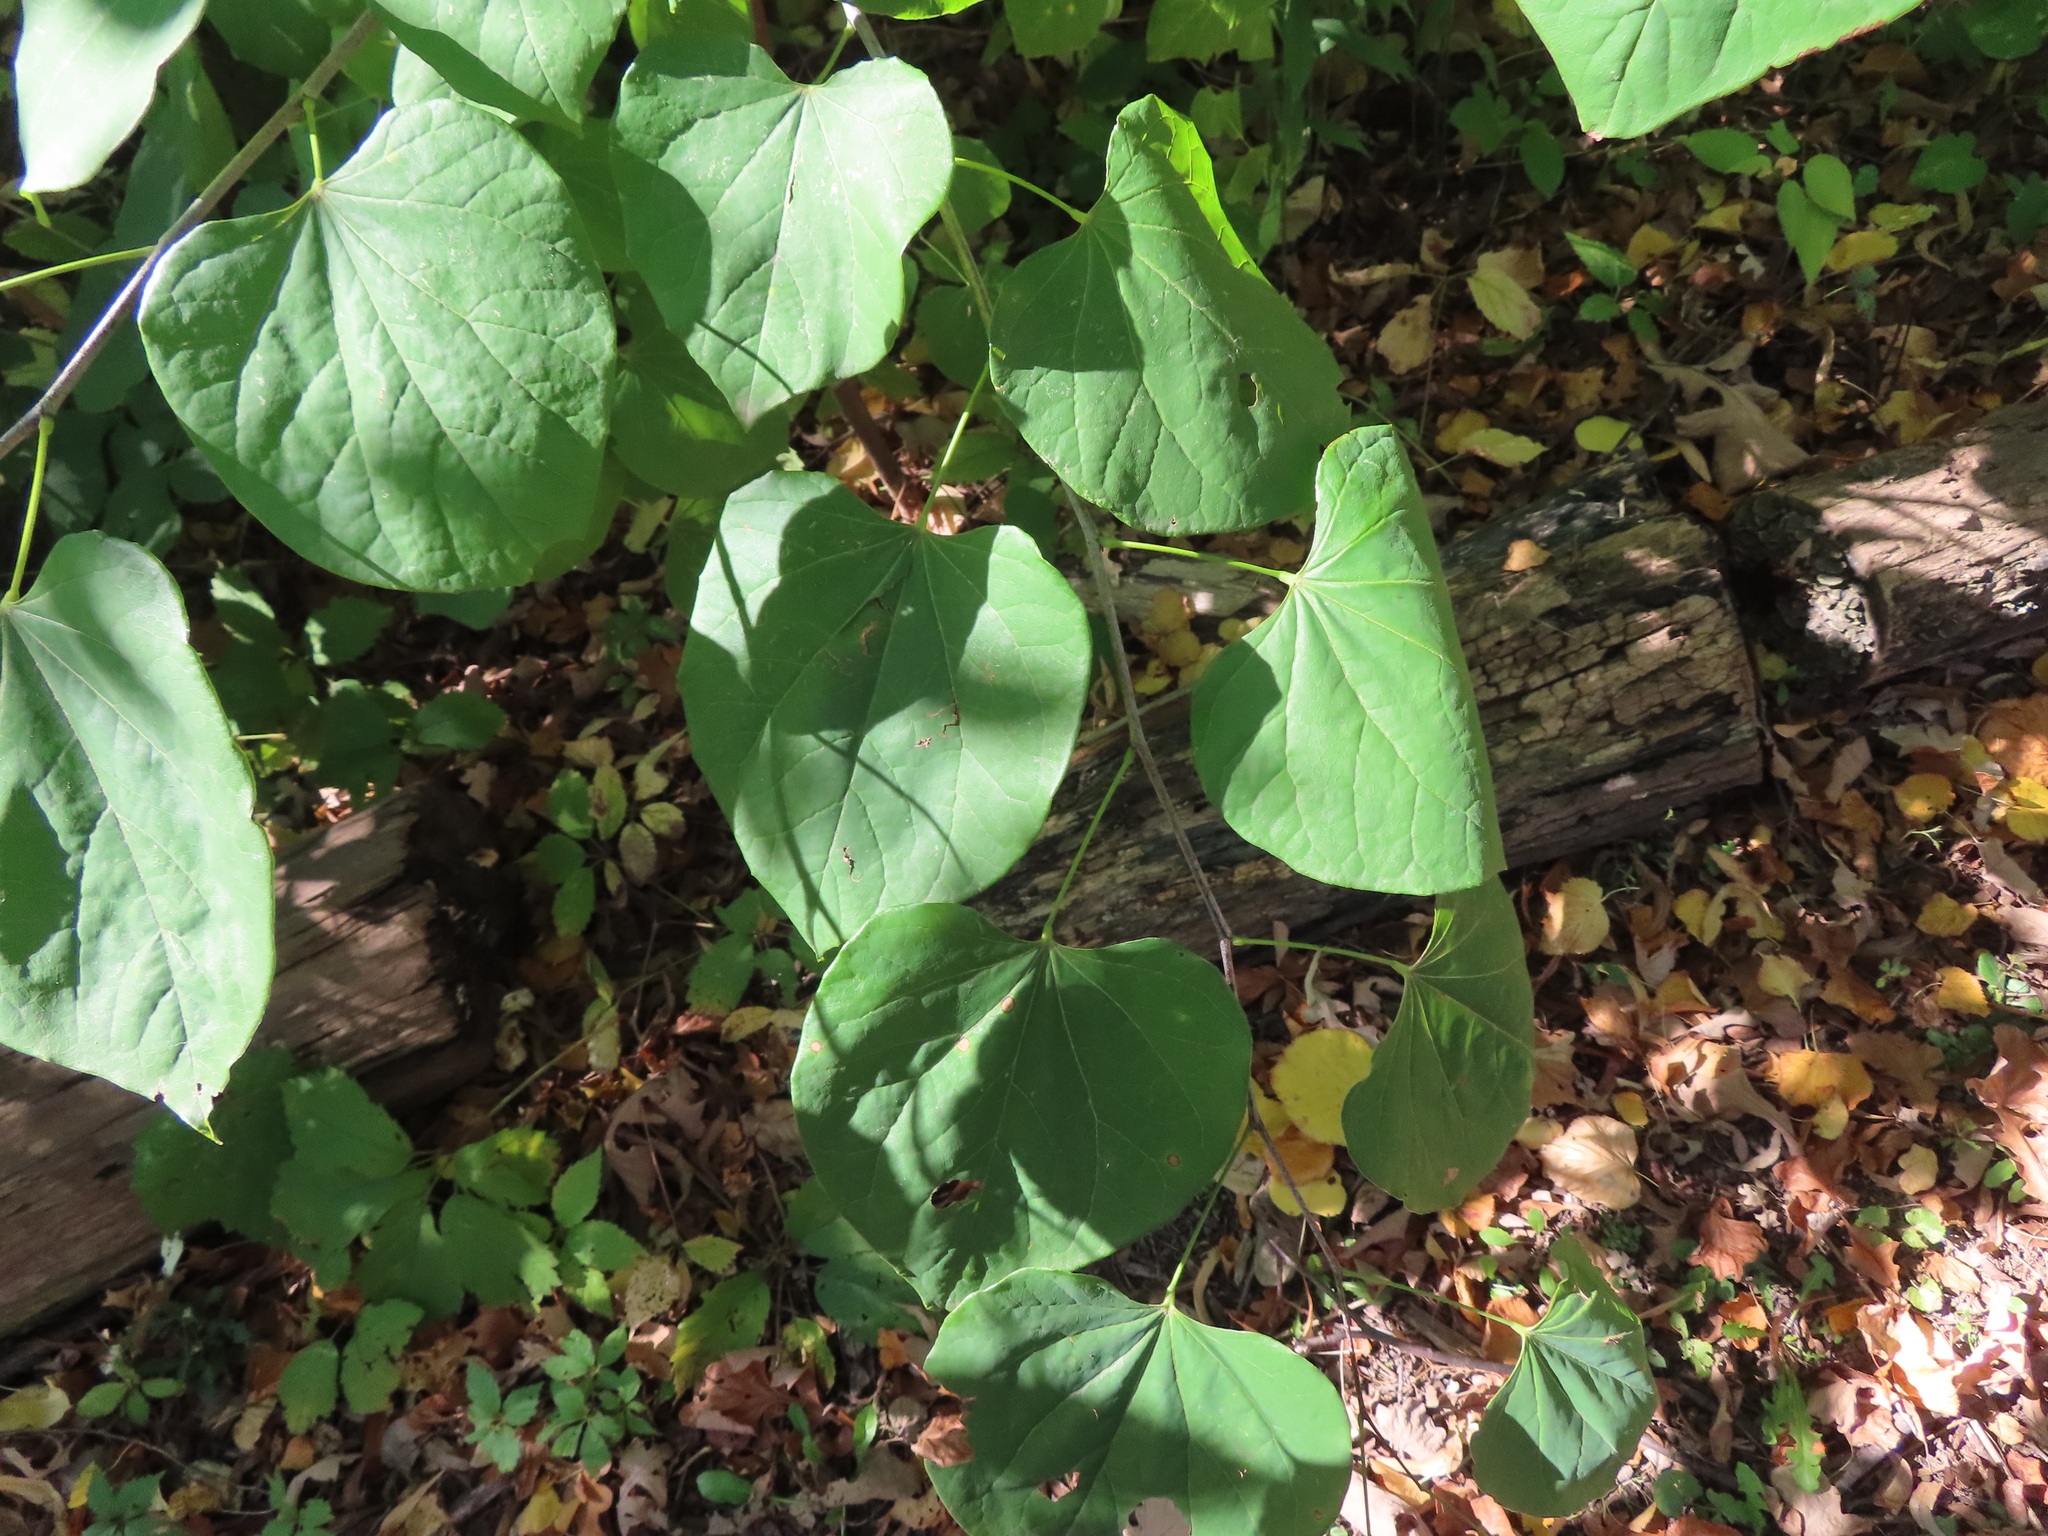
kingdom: Plantae
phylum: Tracheophyta
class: Magnoliopsida
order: Fabales
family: Fabaceae
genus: Cercis
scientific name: Cercis canadensis
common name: Eastern redbud
